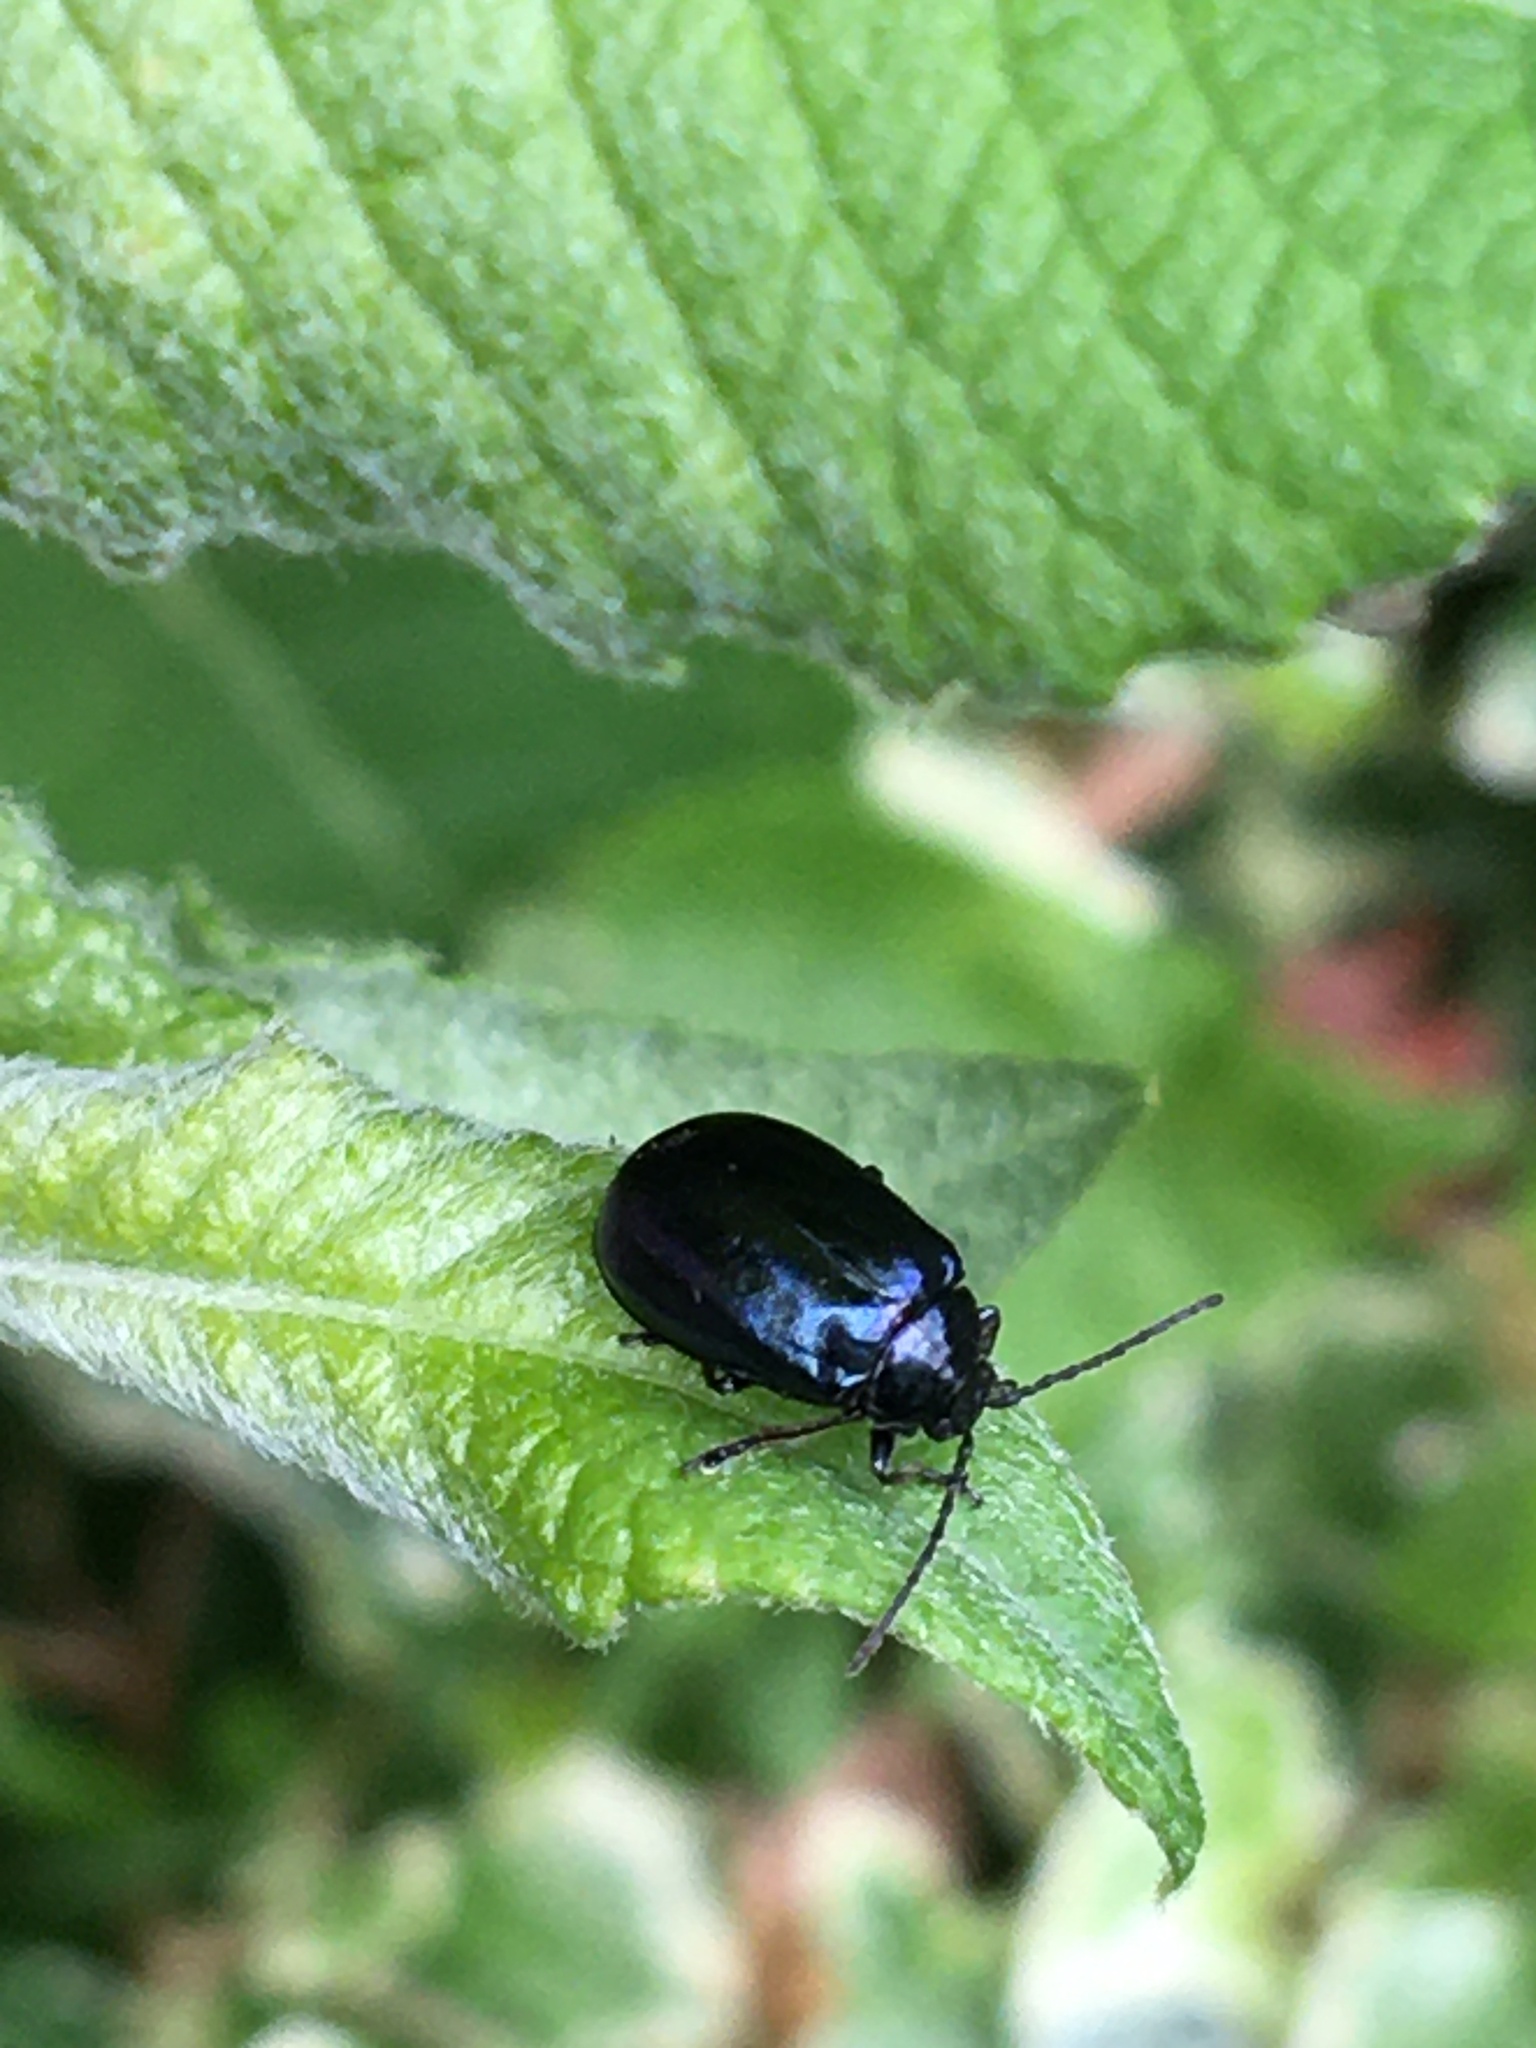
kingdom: Animalia
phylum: Arthropoda
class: Insecta
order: Coleoptera
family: Chrysomelidae
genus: Agelastica
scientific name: Agelastica alni
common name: Alder leaf beetle
